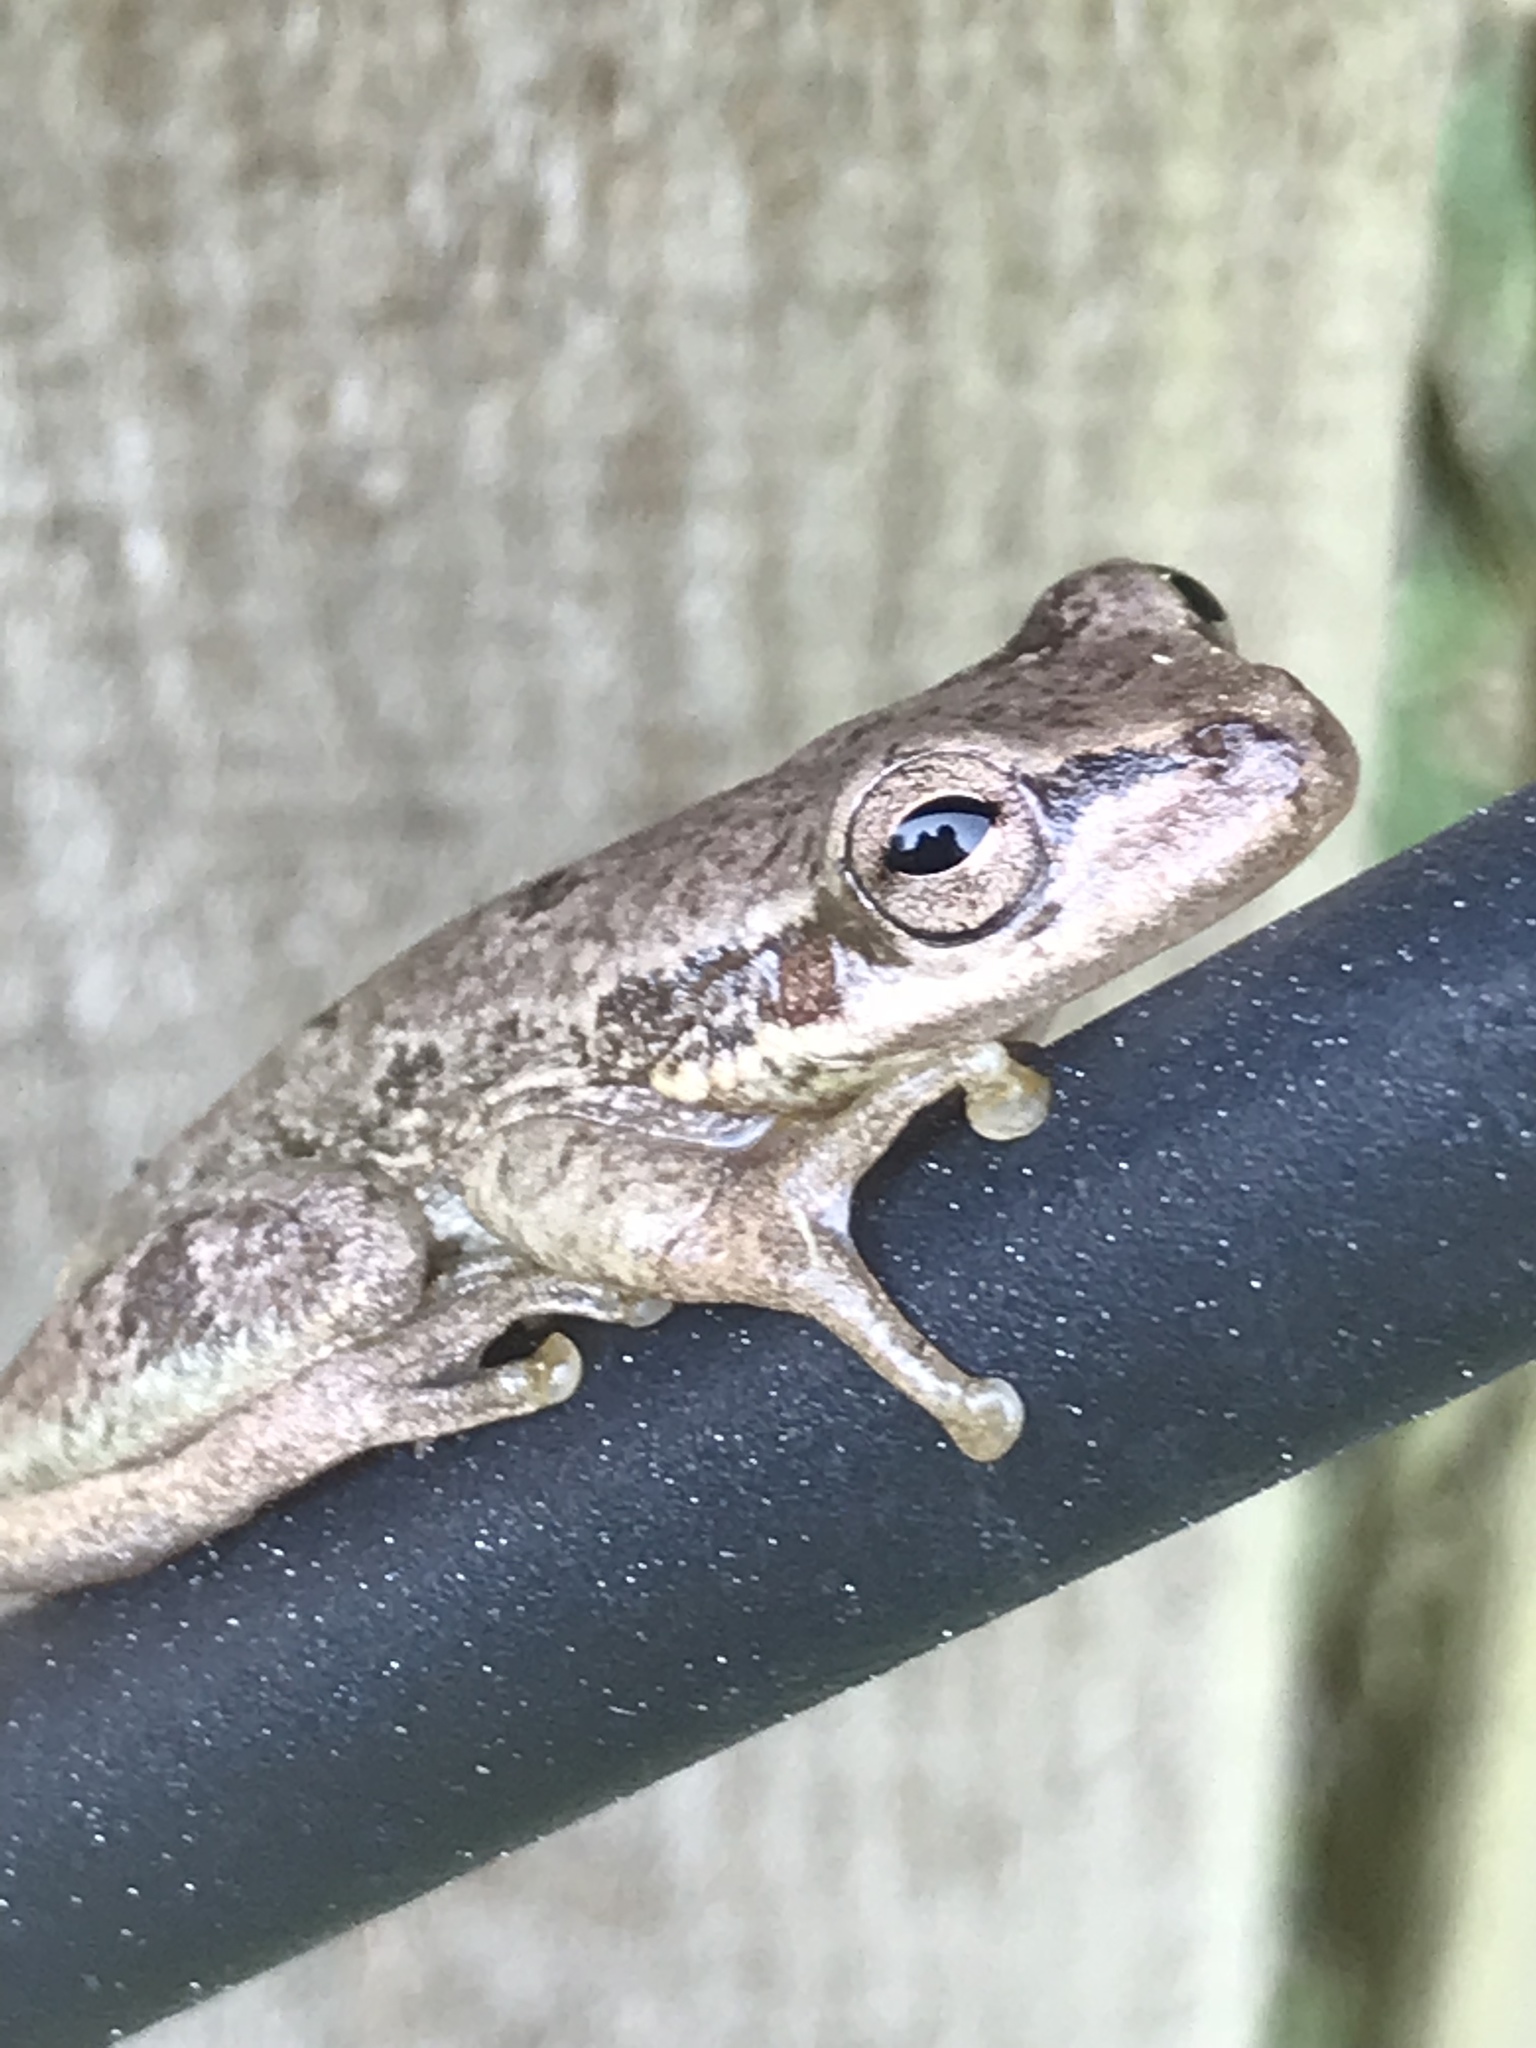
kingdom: Animalia
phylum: Chordata
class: Amphibia
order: Anura
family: Hylidae
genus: Dryophytes
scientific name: Dryophytes squirellus
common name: Squirrel treefrog
